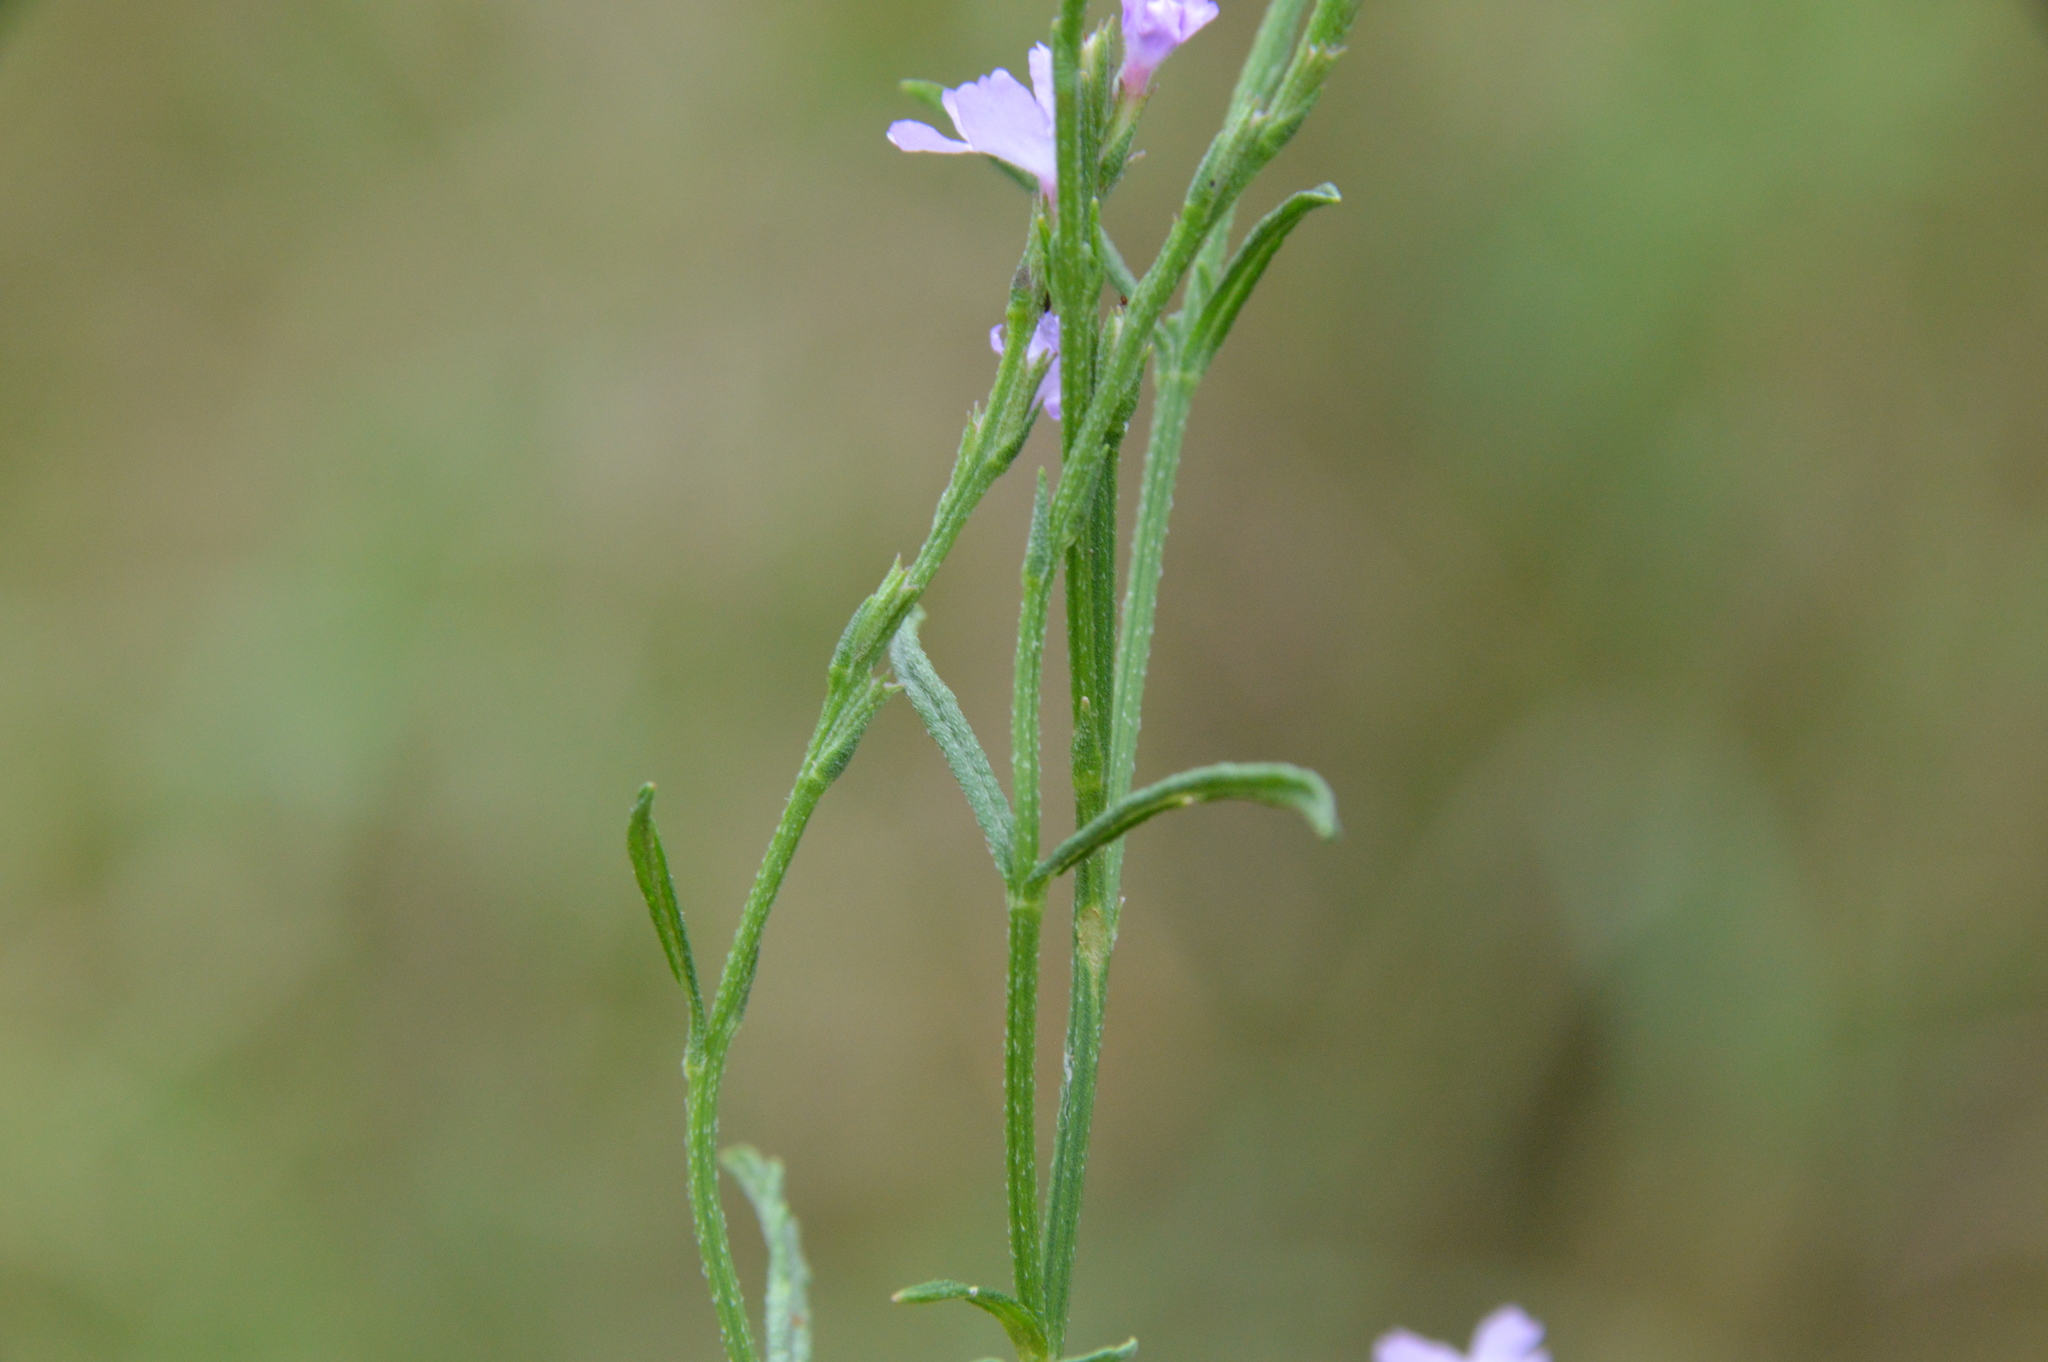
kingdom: Plantae
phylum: Tracheophyta
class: Magnoliopsida
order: Lamiales
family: Verbenaceae
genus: Verbena
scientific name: Verbena halei
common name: Texas vervain
